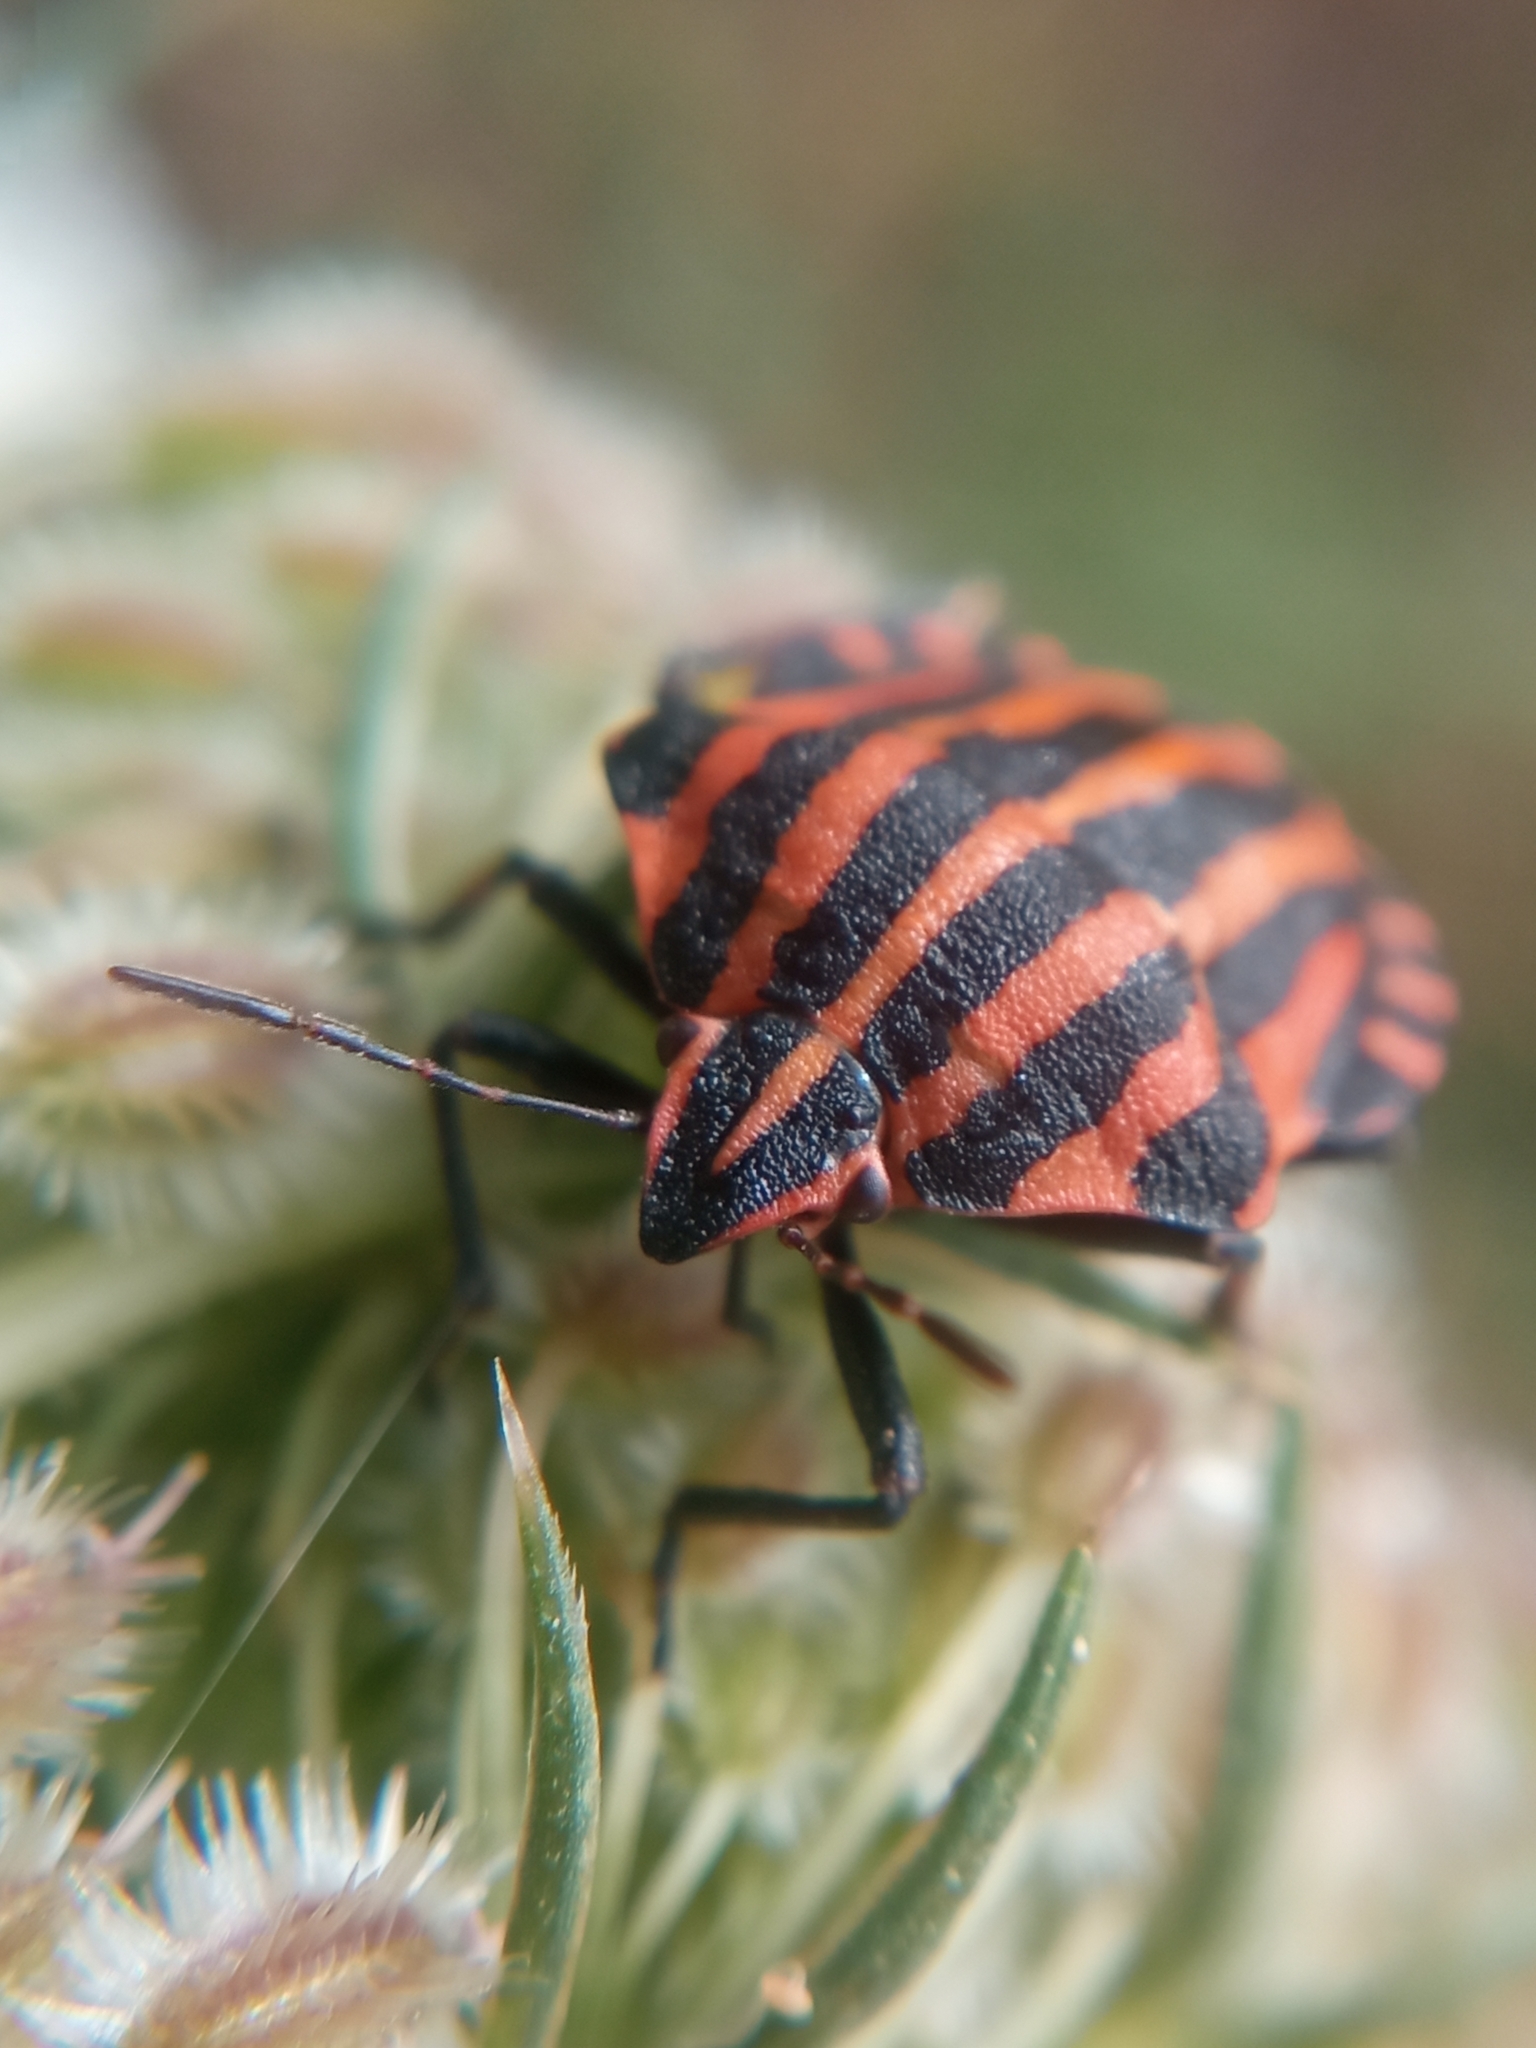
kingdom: Animalia
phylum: Arthropoda
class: Insecta
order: Hemiptera
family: Pentatomidae
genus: Graphosoma
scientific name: Graphosoma italicum
